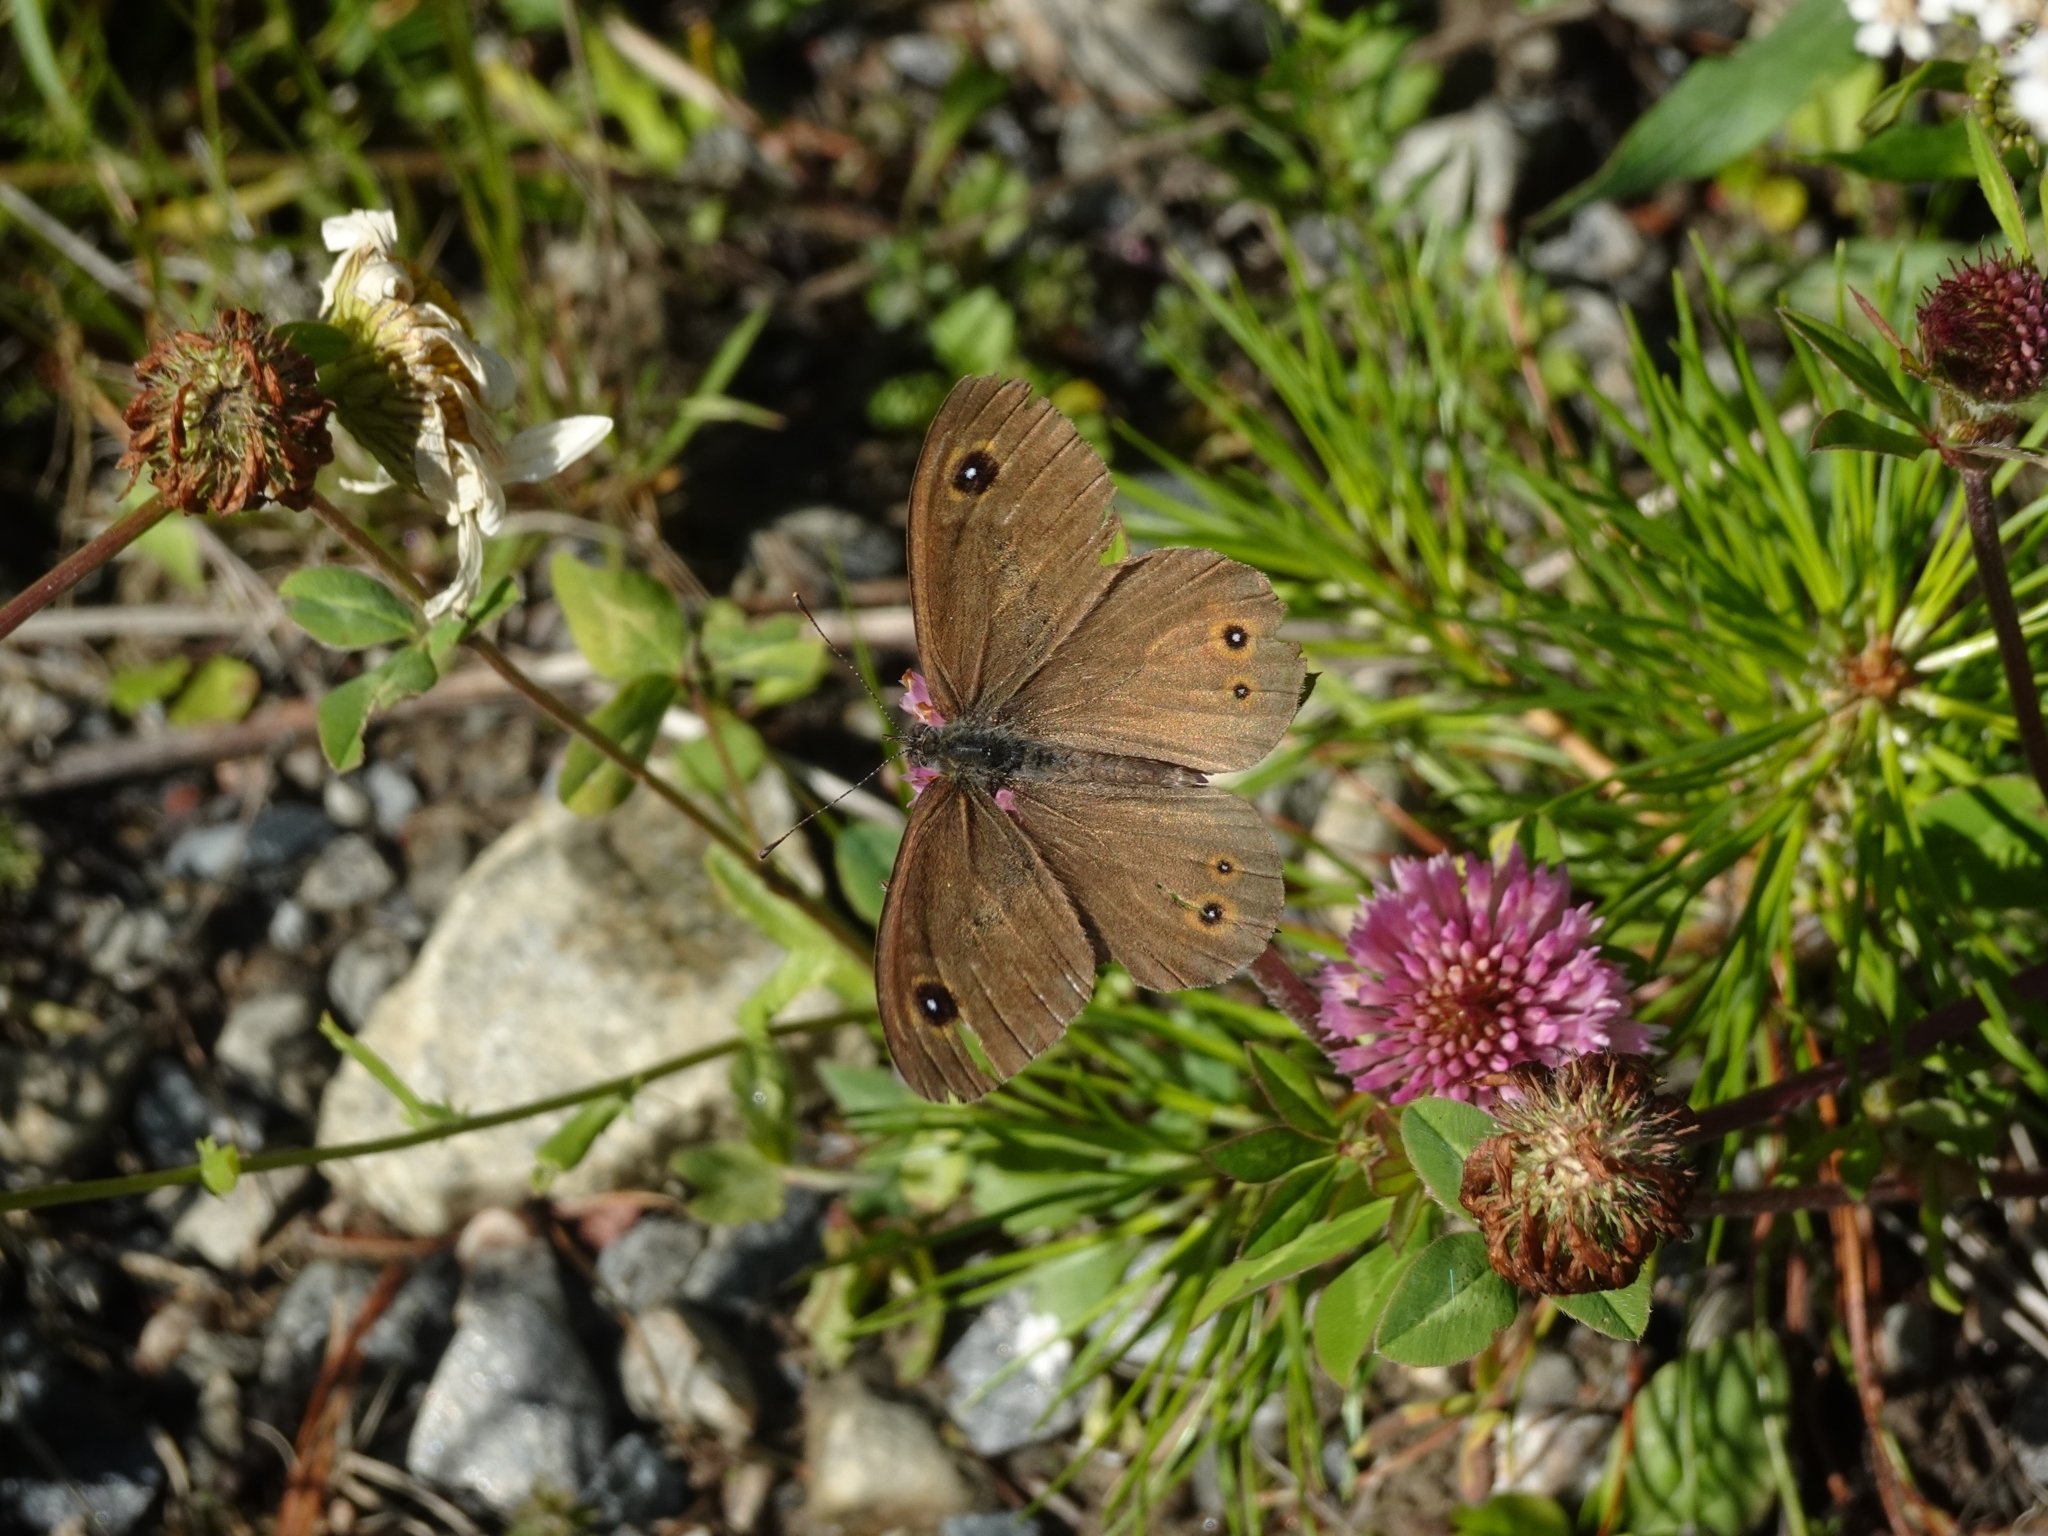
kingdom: Animalia
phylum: Arthropoda
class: Insecta
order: Lepidoptera
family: Nymphalidae
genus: Pararge
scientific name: Pararge Lasiommata maera
